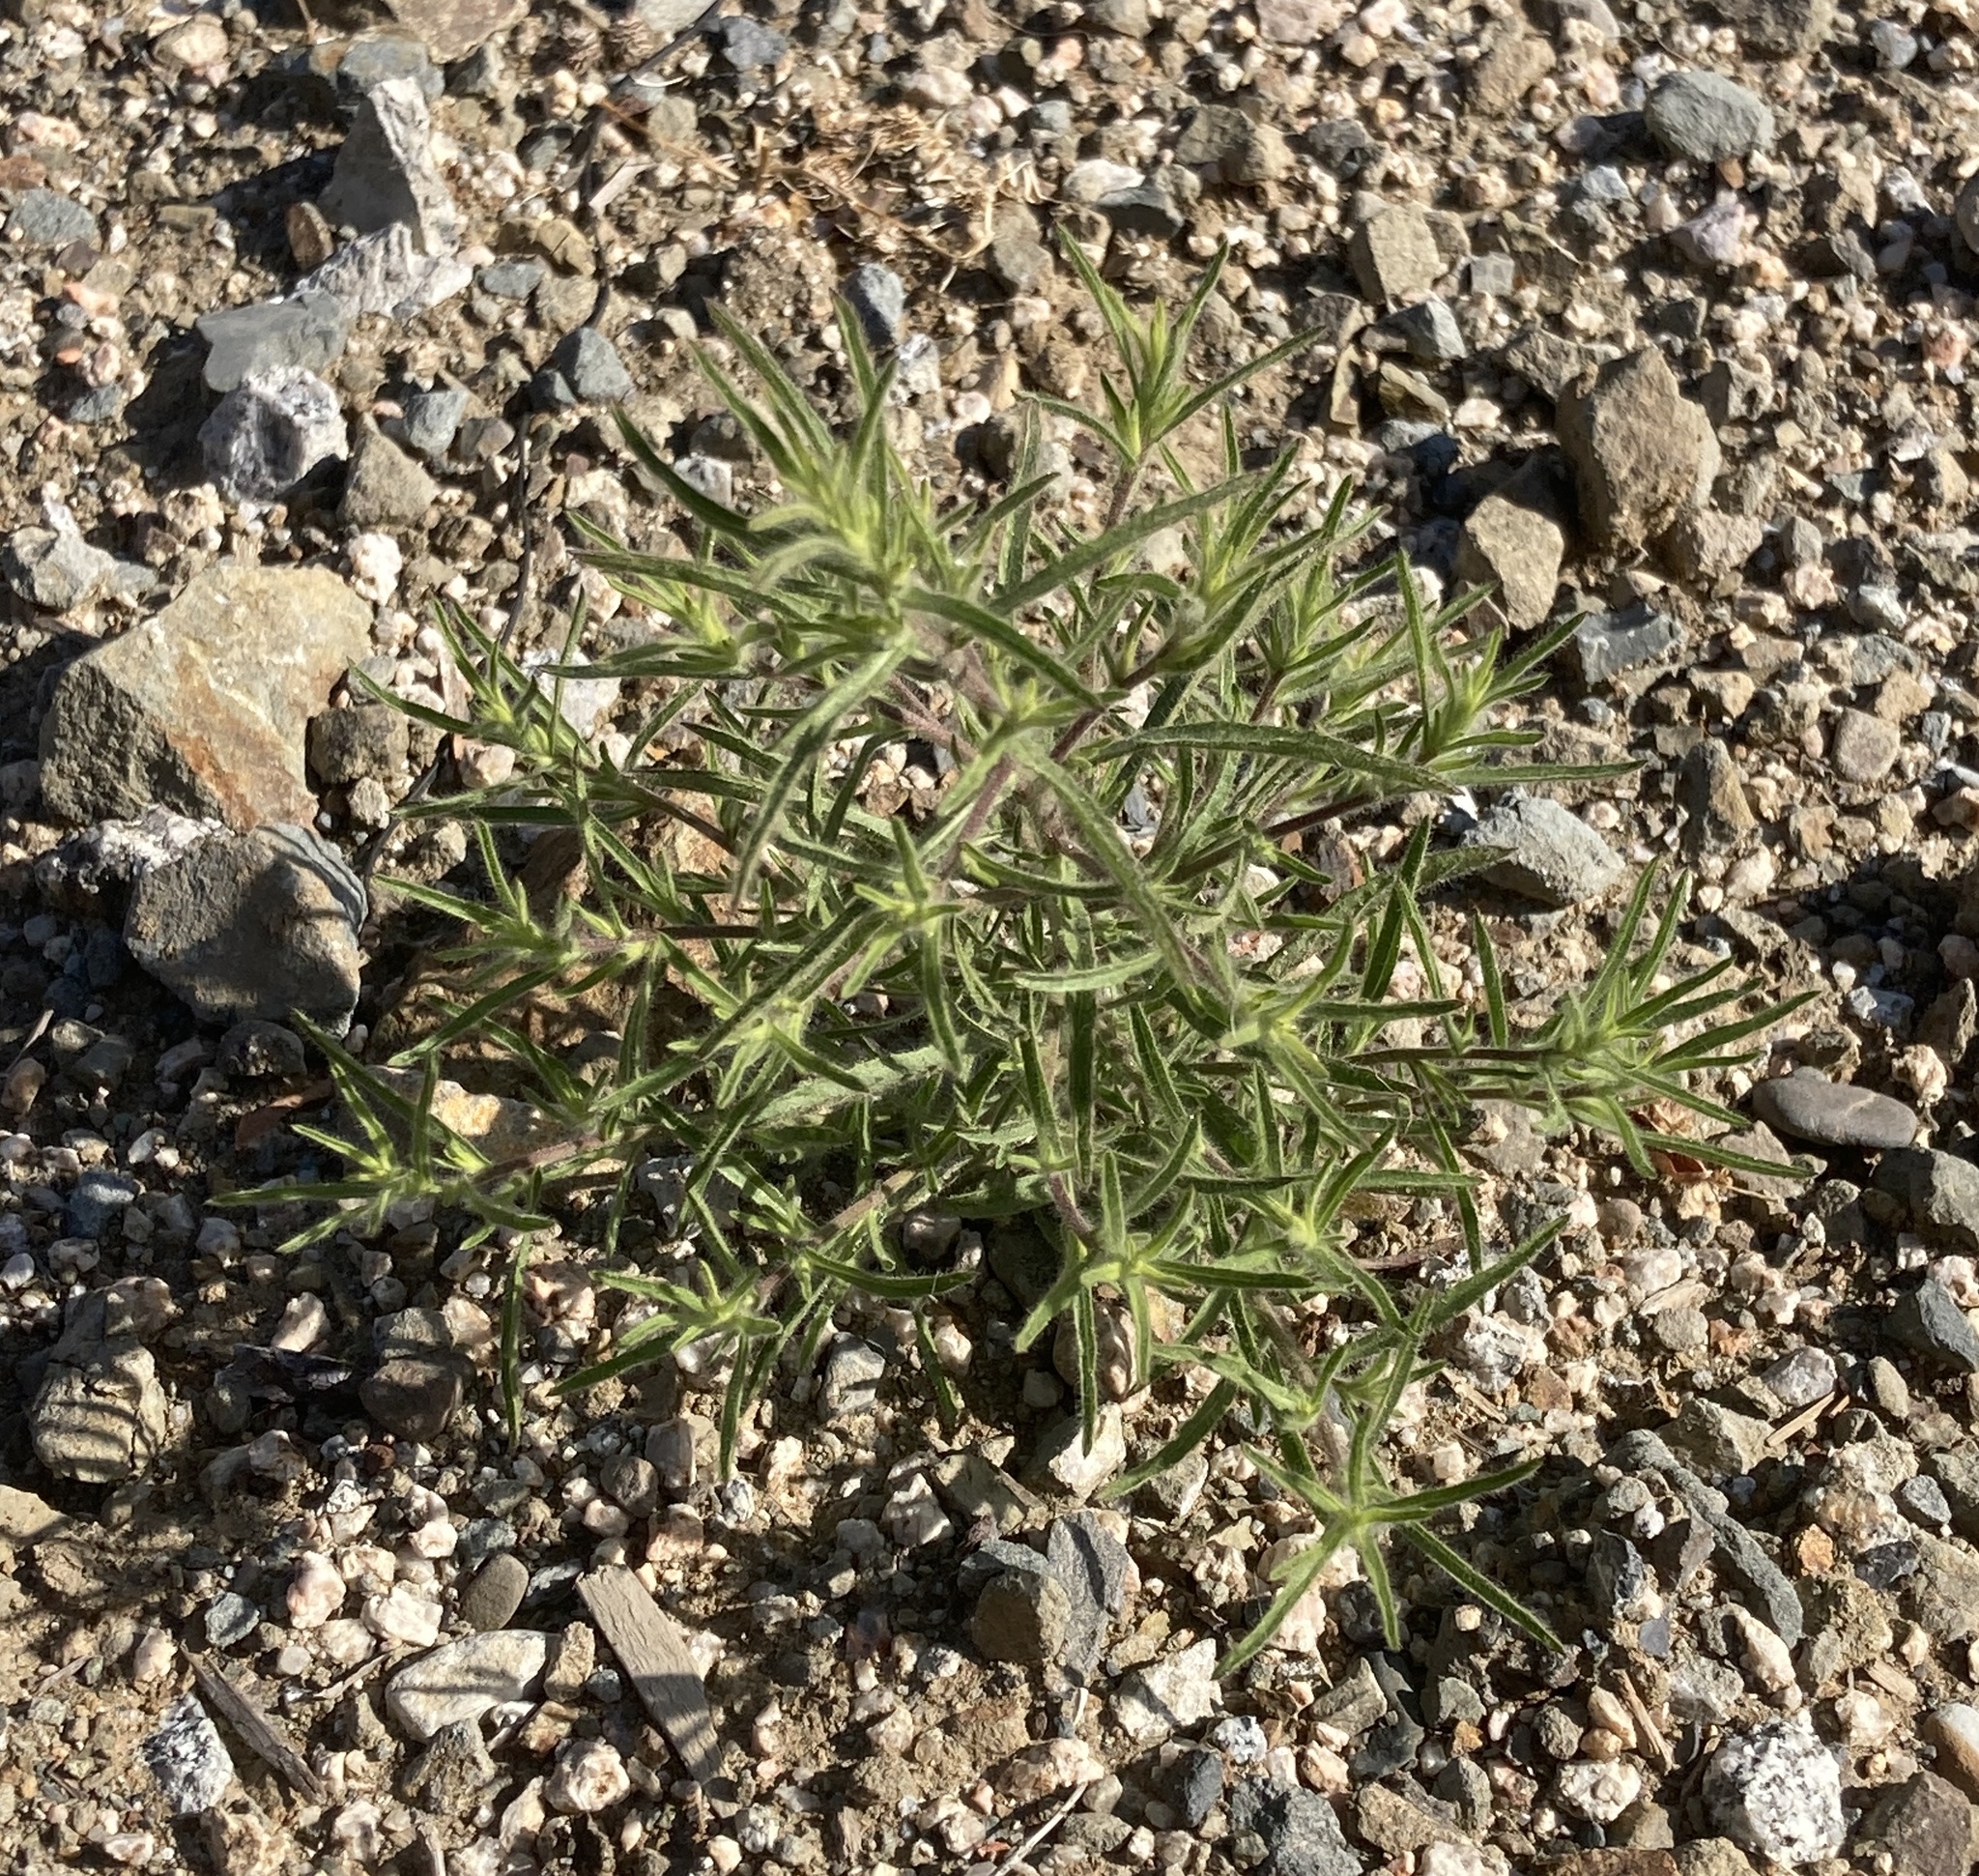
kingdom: Plantae
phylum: Tracheophyta
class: Magnoliopsida
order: Asterales
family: Asteraceae
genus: Dittrichia
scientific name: Dittrichia graveolens
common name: Stinking fleabane
